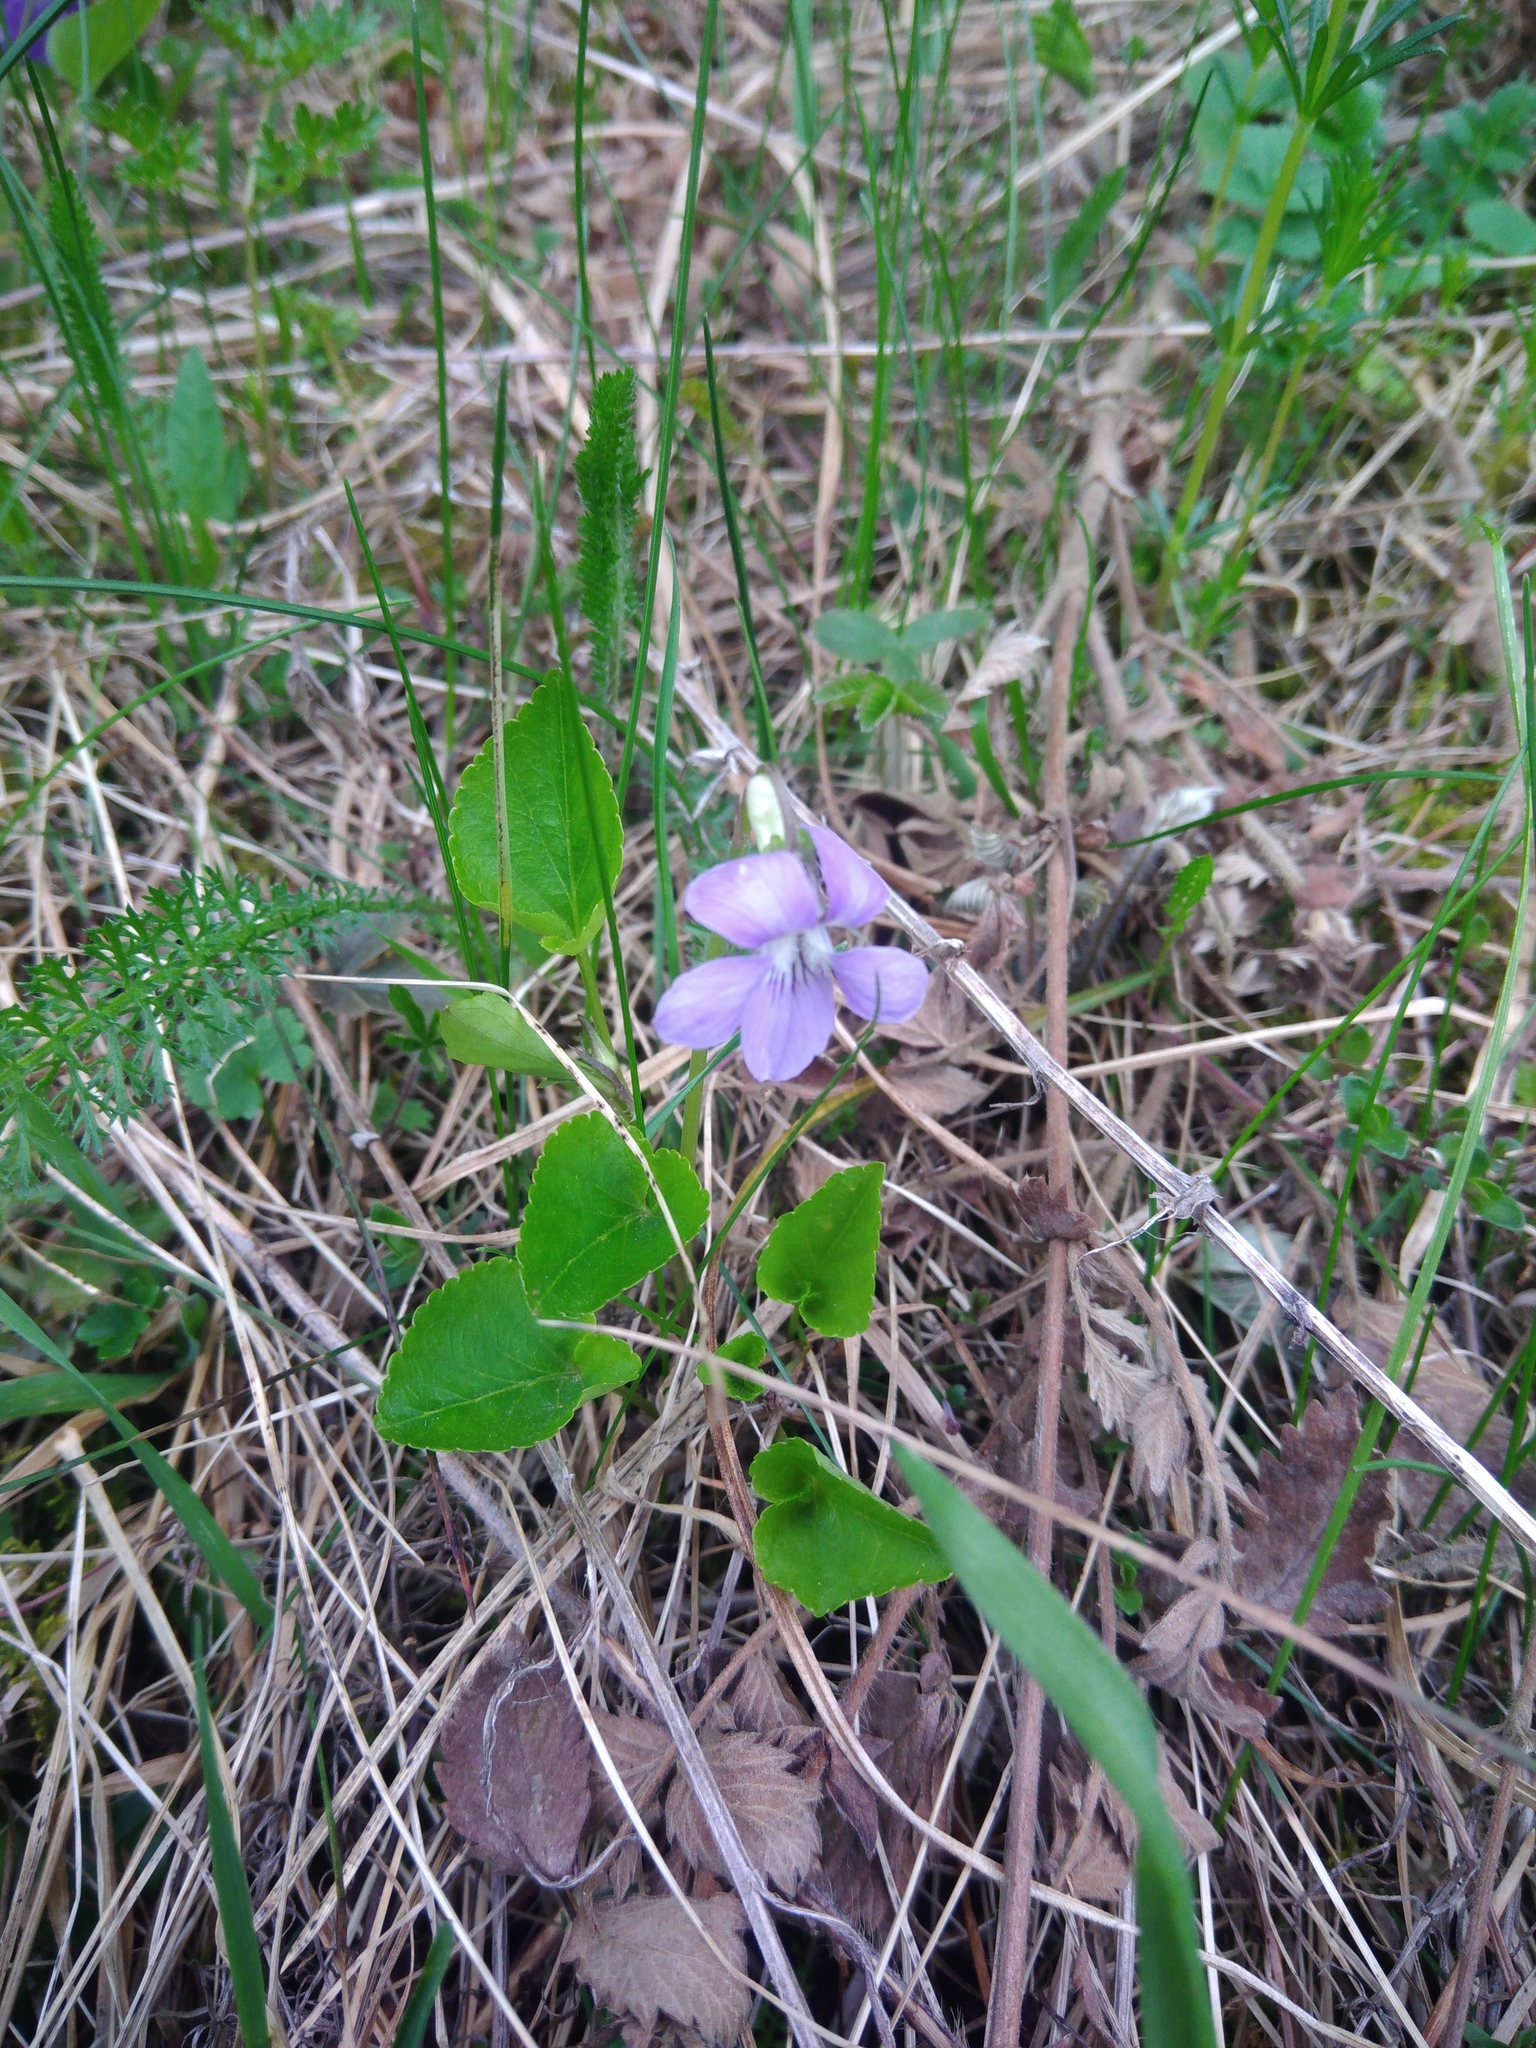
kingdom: Plantae
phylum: Tracheophyta
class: Magnoliopsida
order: Malpighiales
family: Violaceae
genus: Viola
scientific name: Viola canina
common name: Heath dog-violet
